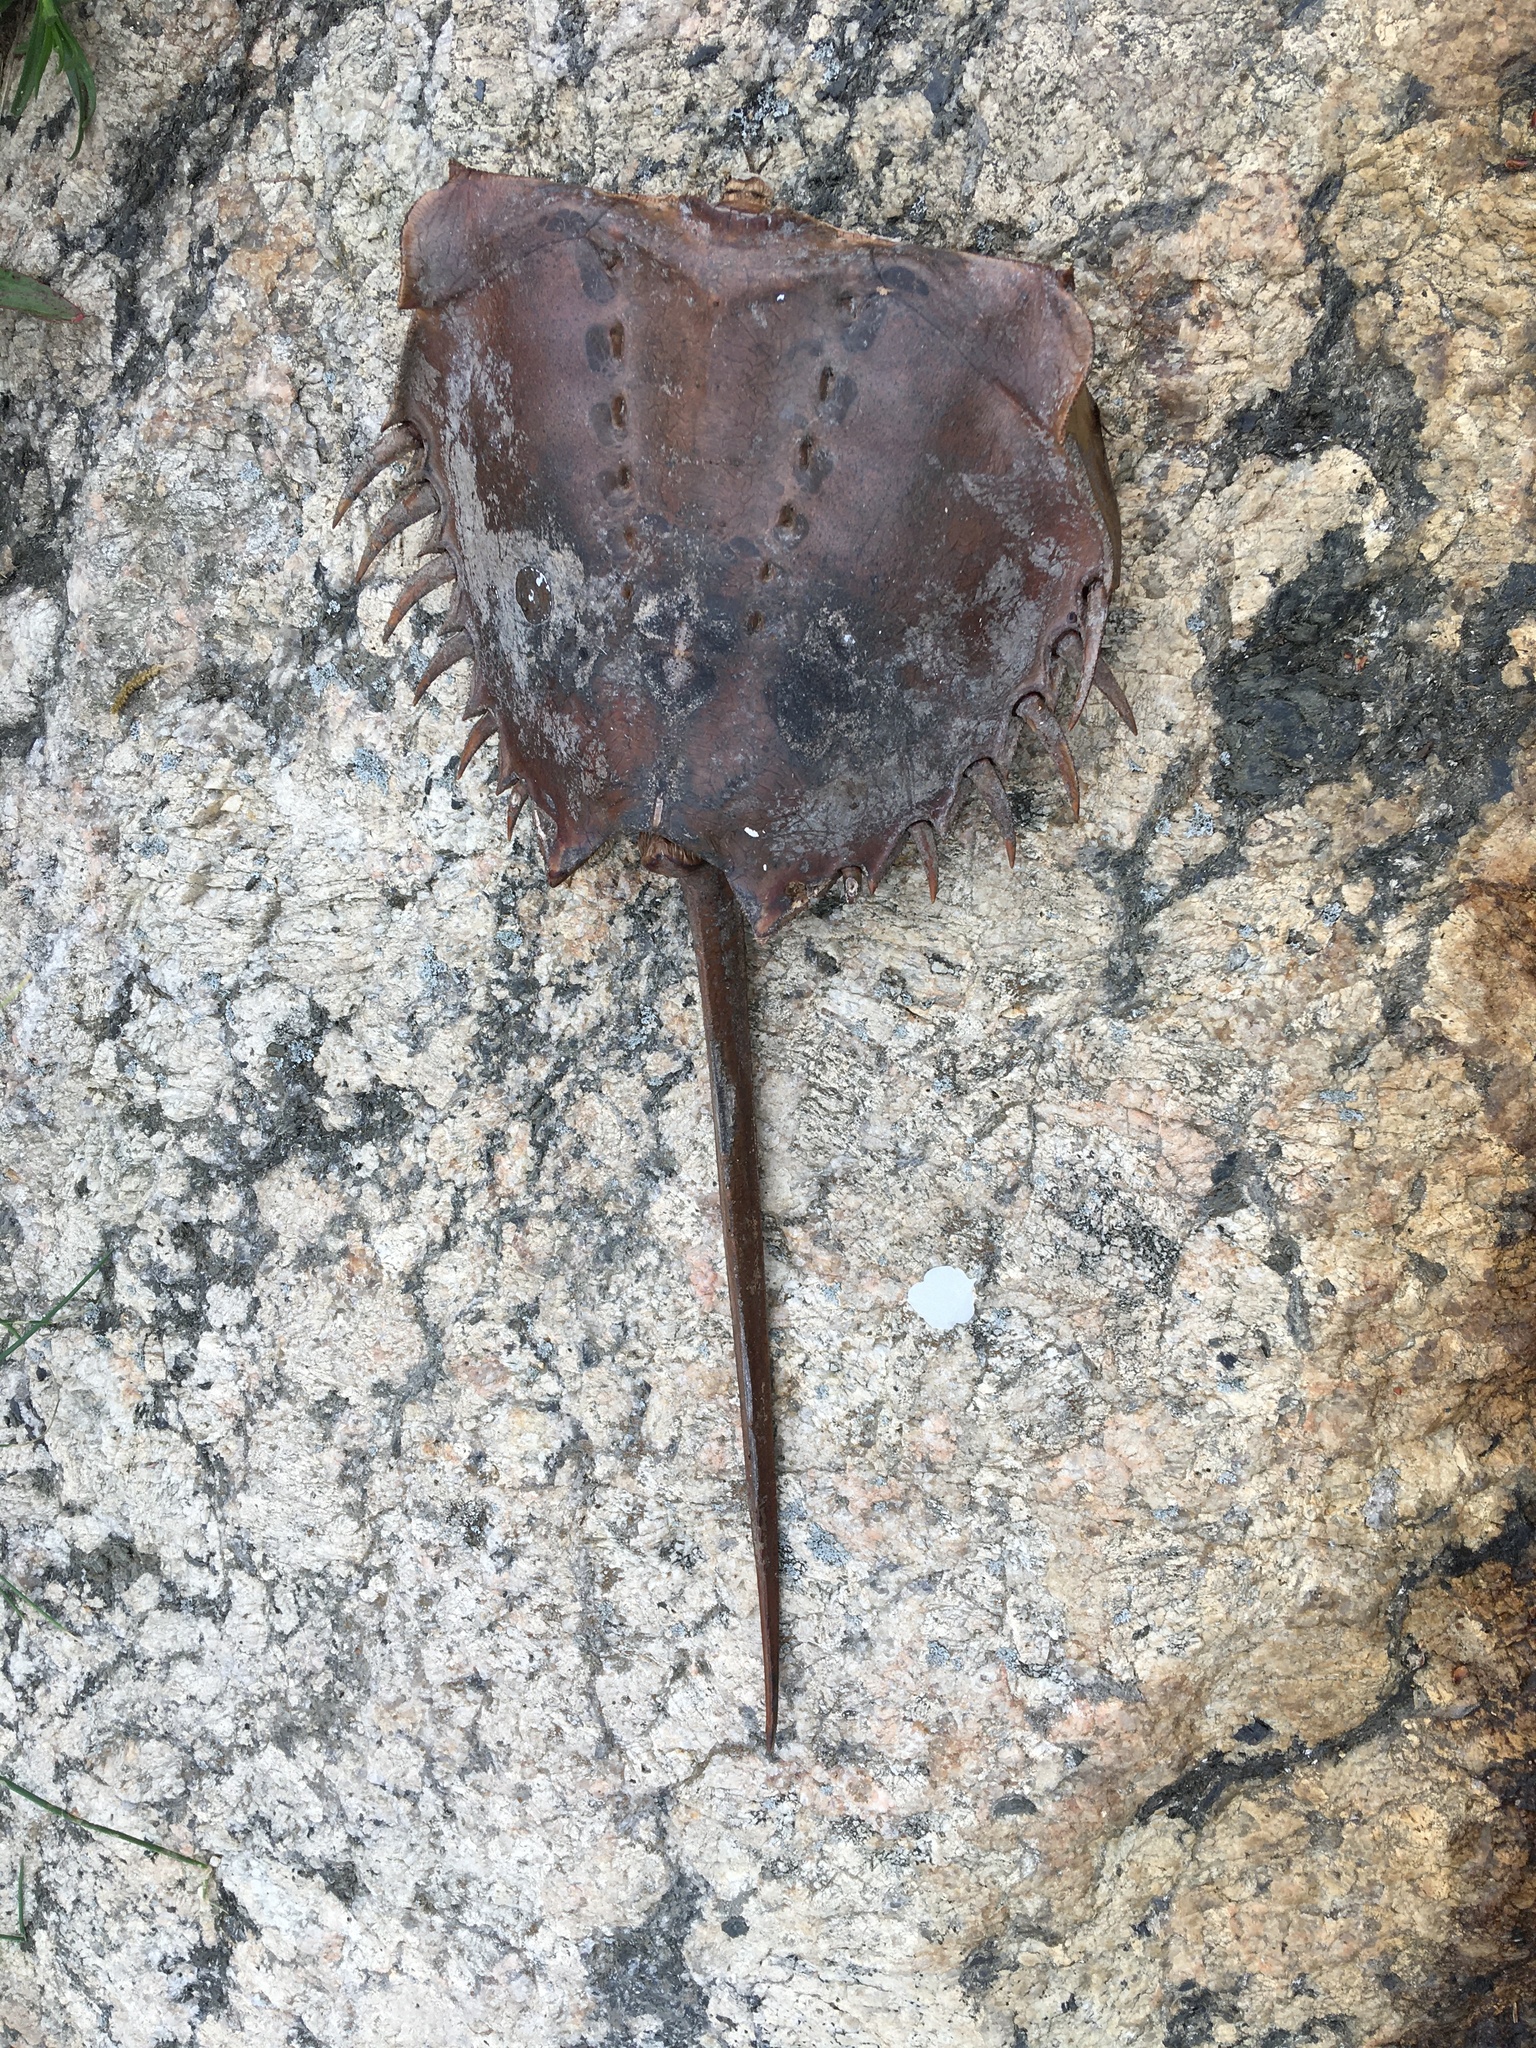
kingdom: Animalia
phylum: Arthropoda
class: Merostomata
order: Xiphosurida
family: Limulidae
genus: Limulus
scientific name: Limulus polyphemus
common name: Horseshoe crab
